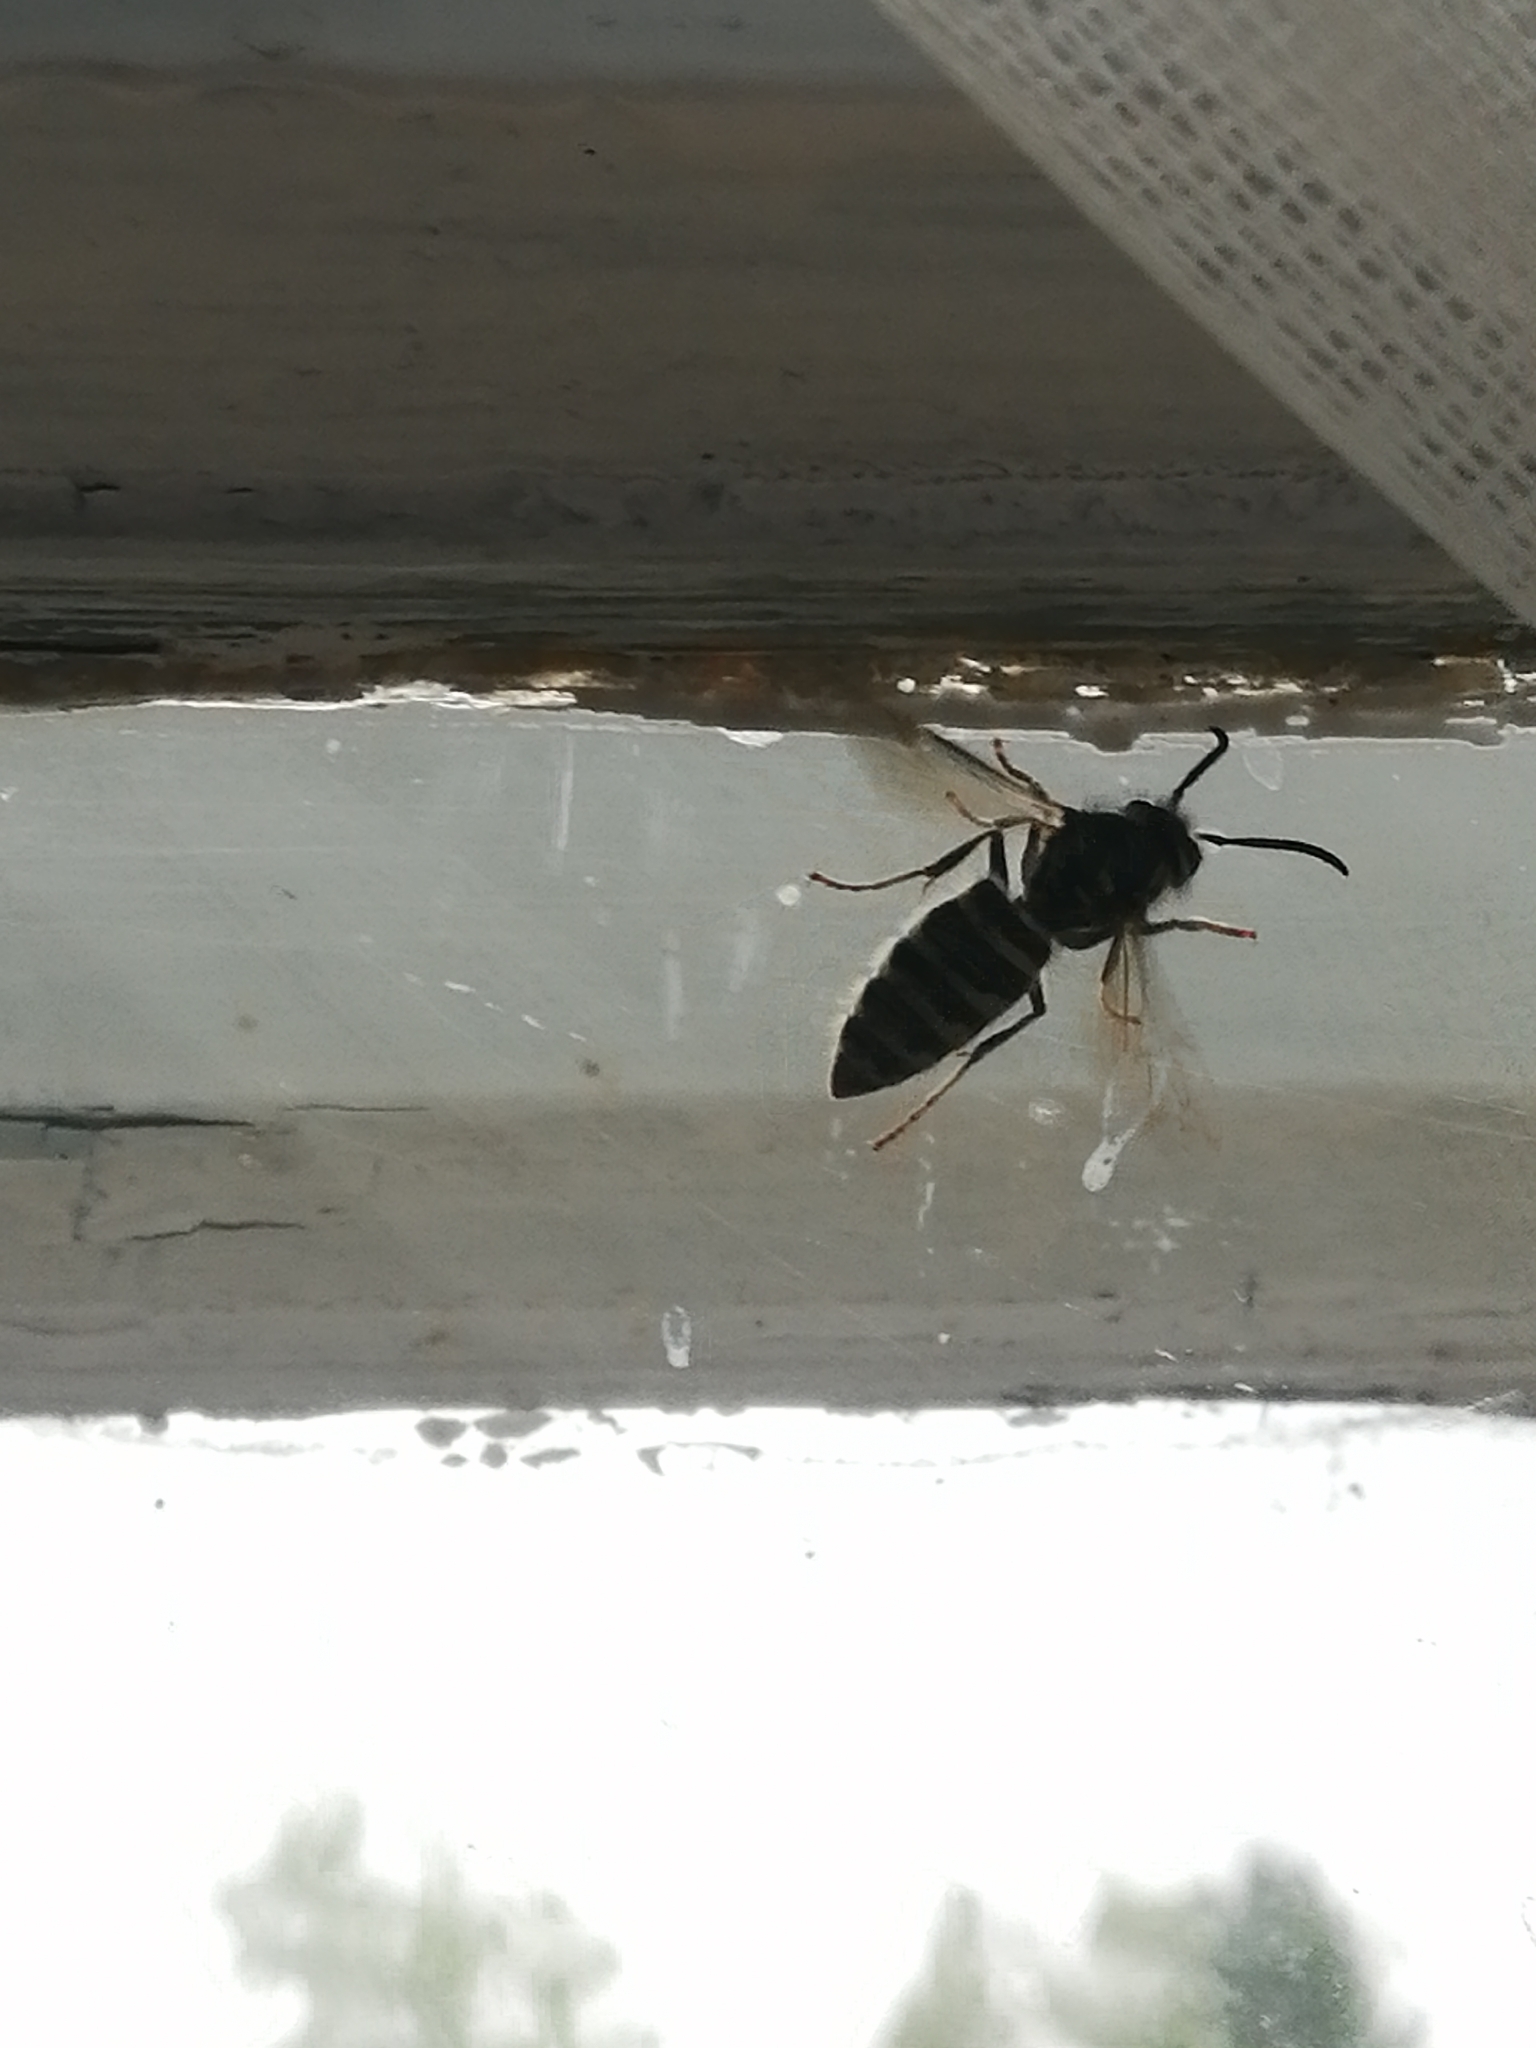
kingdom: Animalia
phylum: Arthropoda
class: Insecta
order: Hymenoptera
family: Vespidae
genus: Vespula
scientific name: Vespula vulgaris
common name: Common wasp
